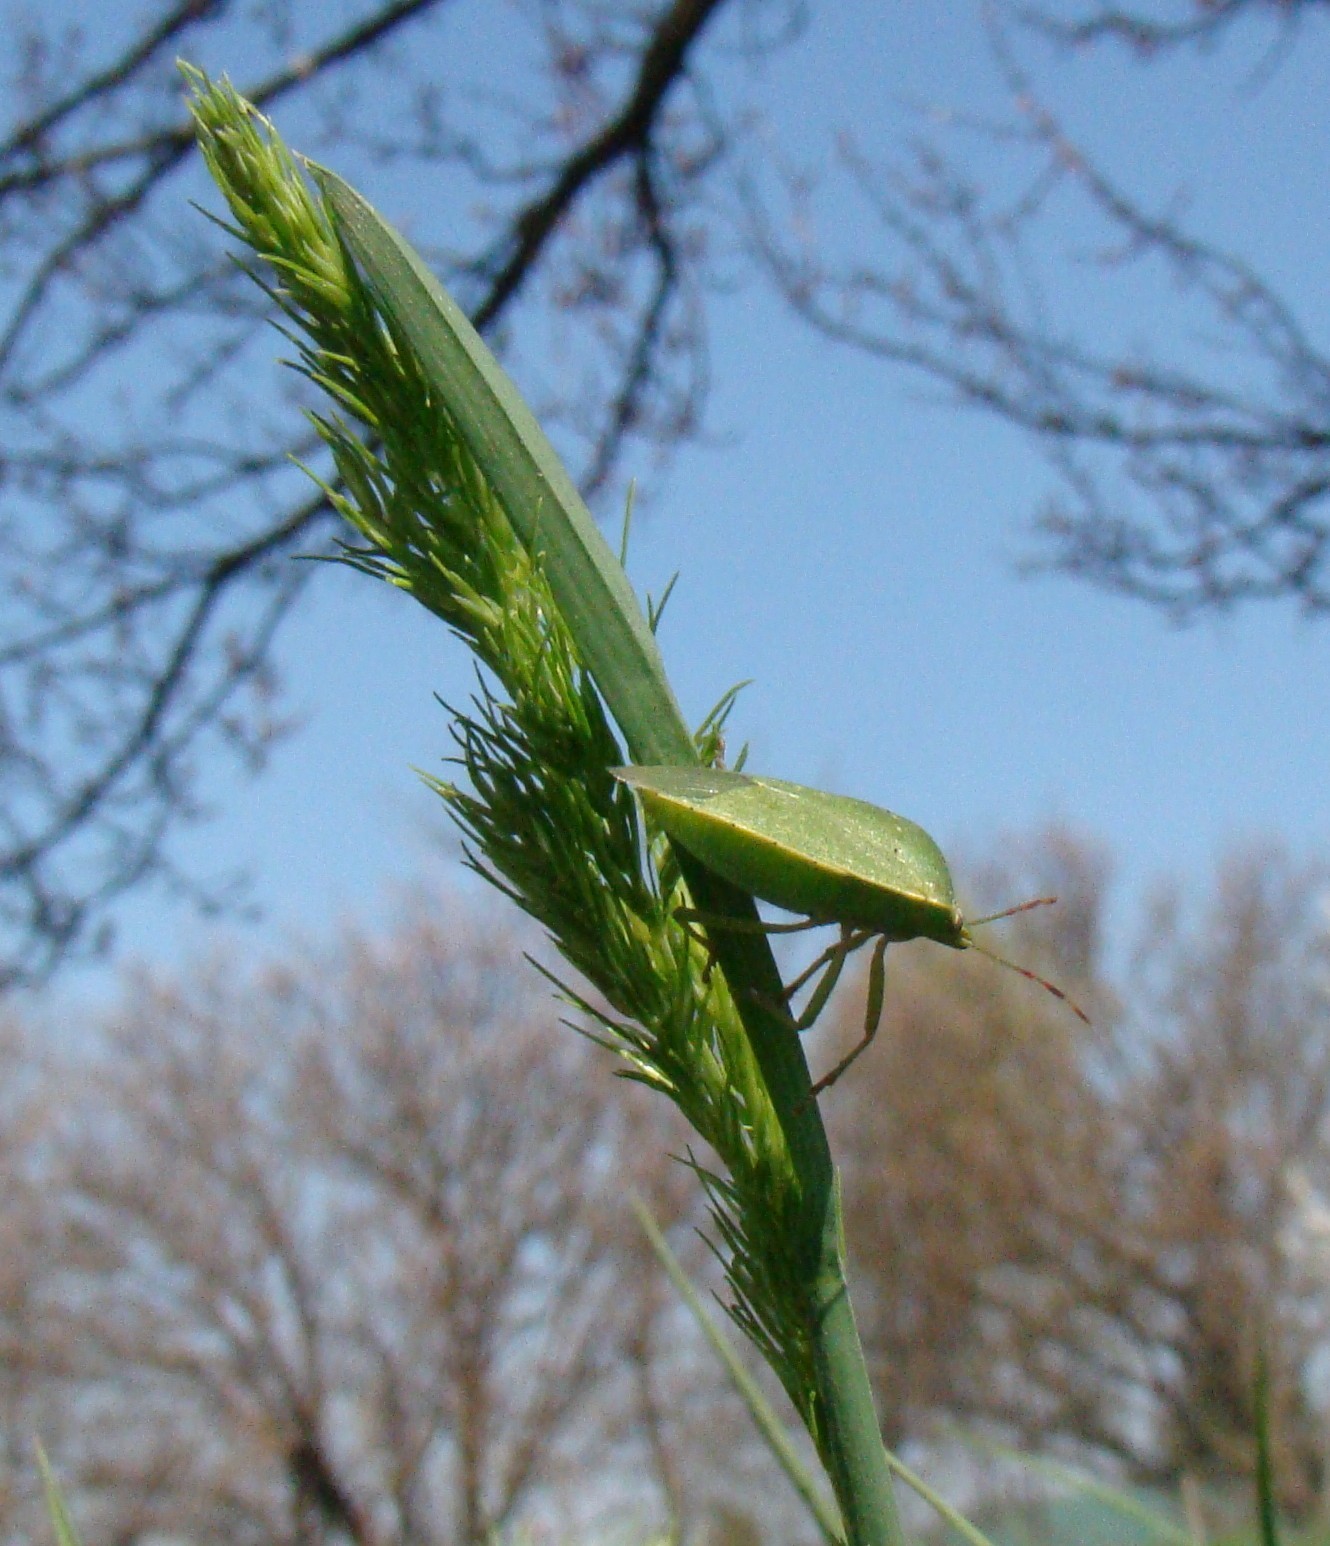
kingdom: Animalia
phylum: Arthropoda
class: Insecta
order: Hemiptera
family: Pentatomidae
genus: Nezara
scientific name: Nezara viridula
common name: Southern green stink bug
